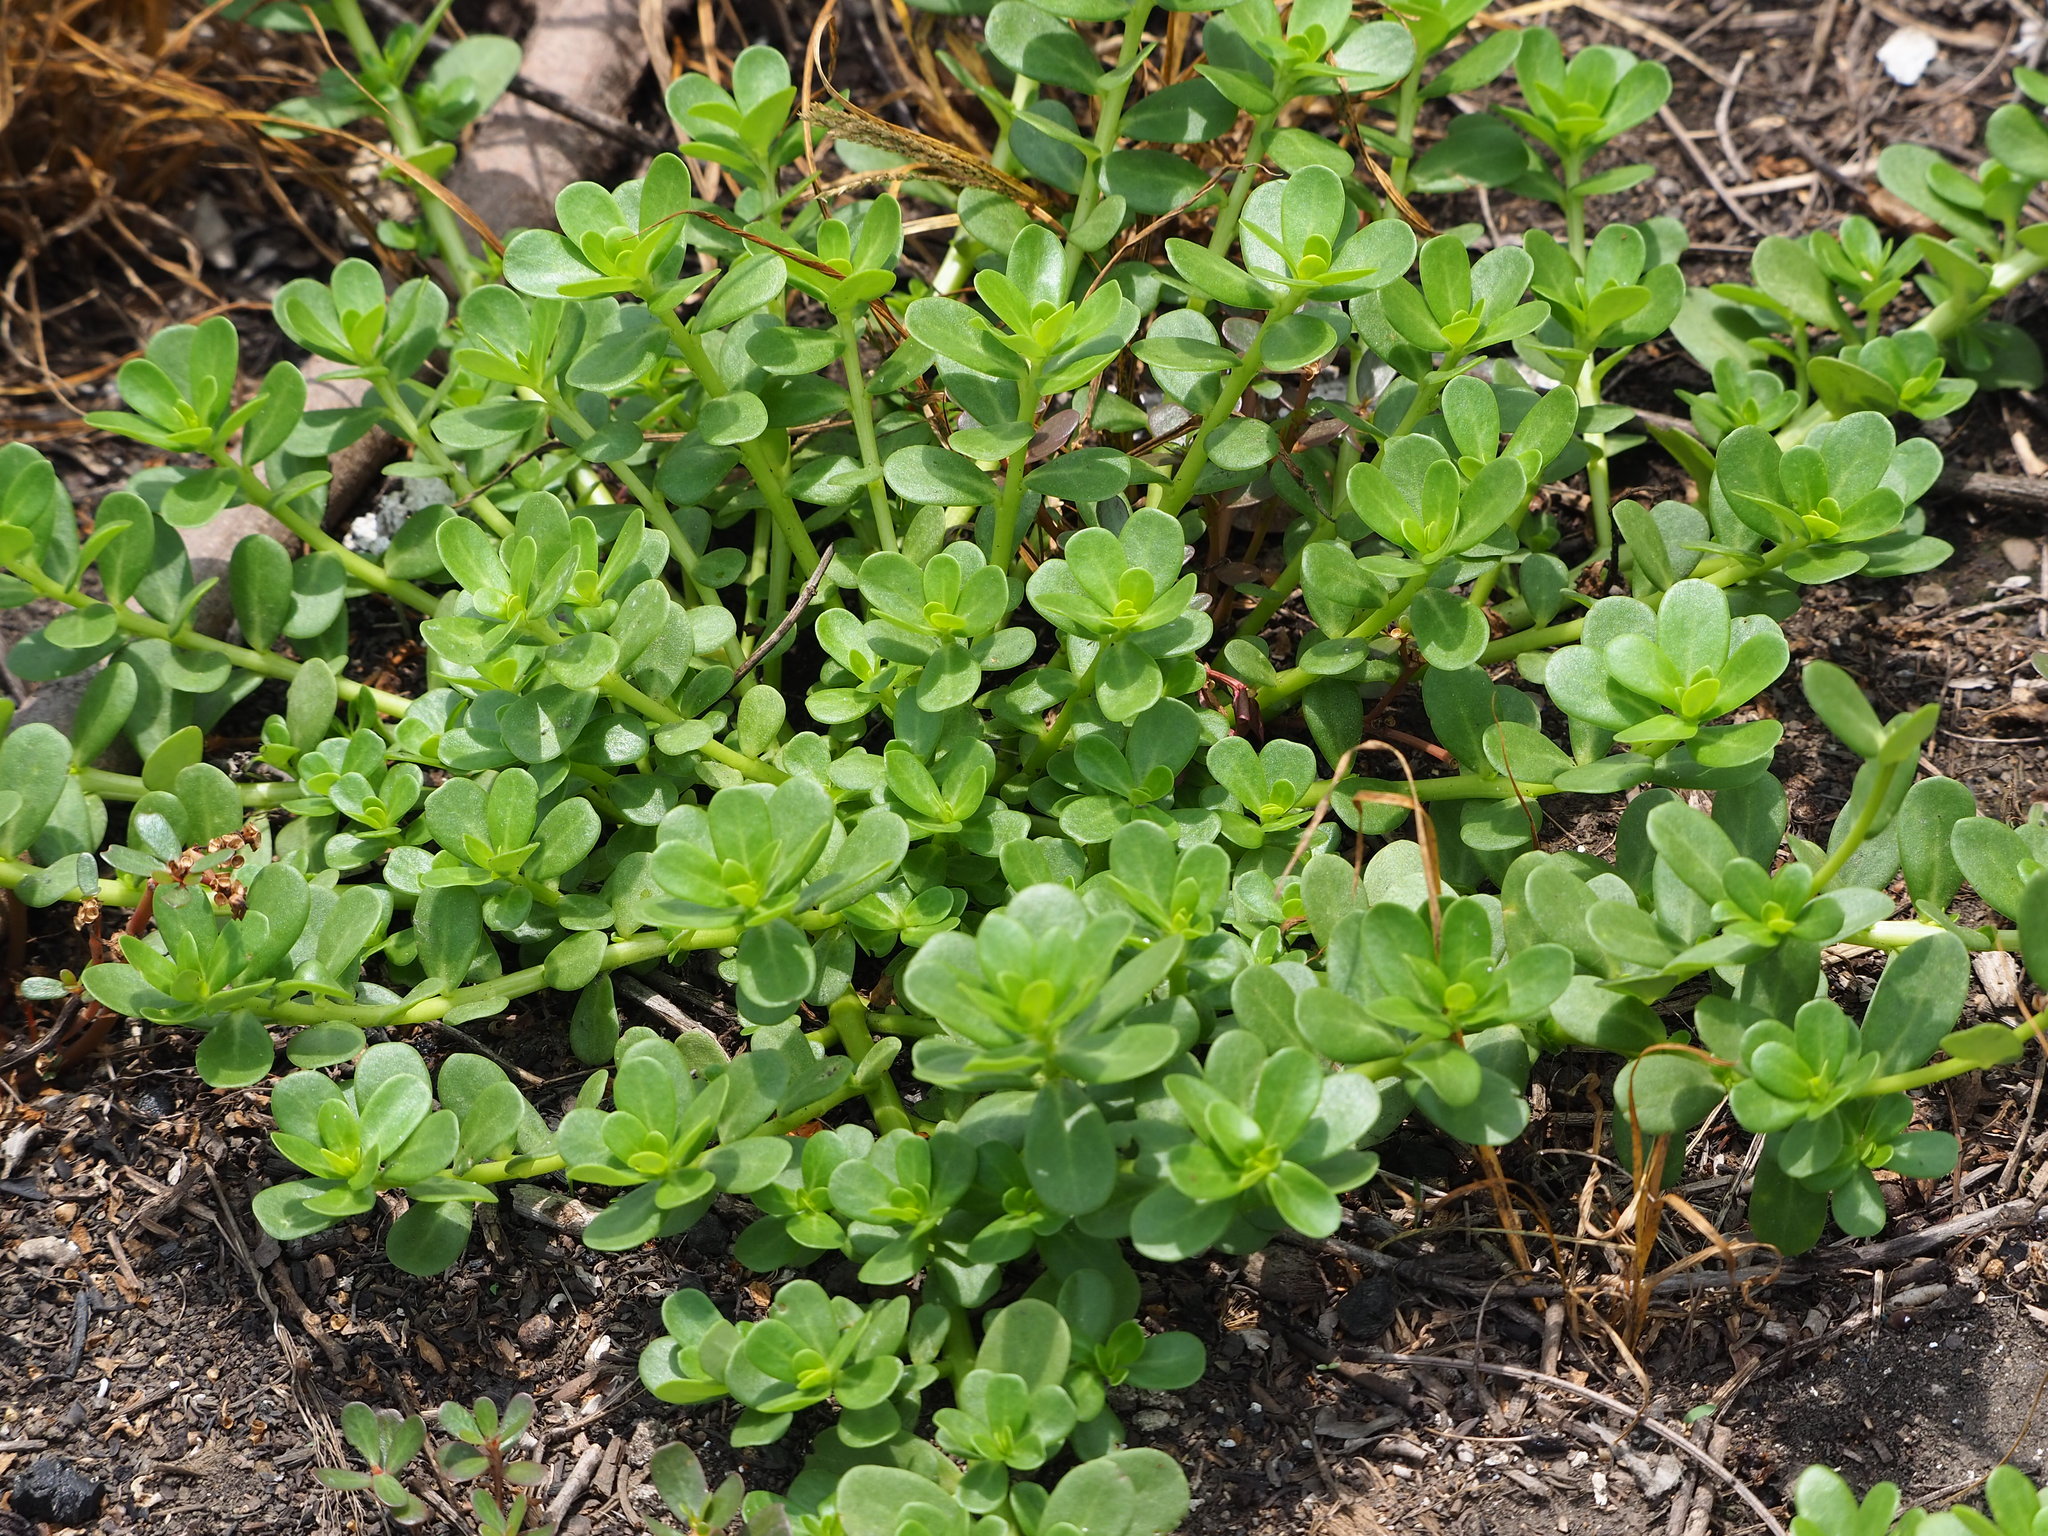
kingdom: Plantae
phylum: Tracheophyta
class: Magnoliopsida
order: Caryophyllales
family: Portulacaceae
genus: Portulaca
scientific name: Portulaca umbraticola
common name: Wingpod purslane
